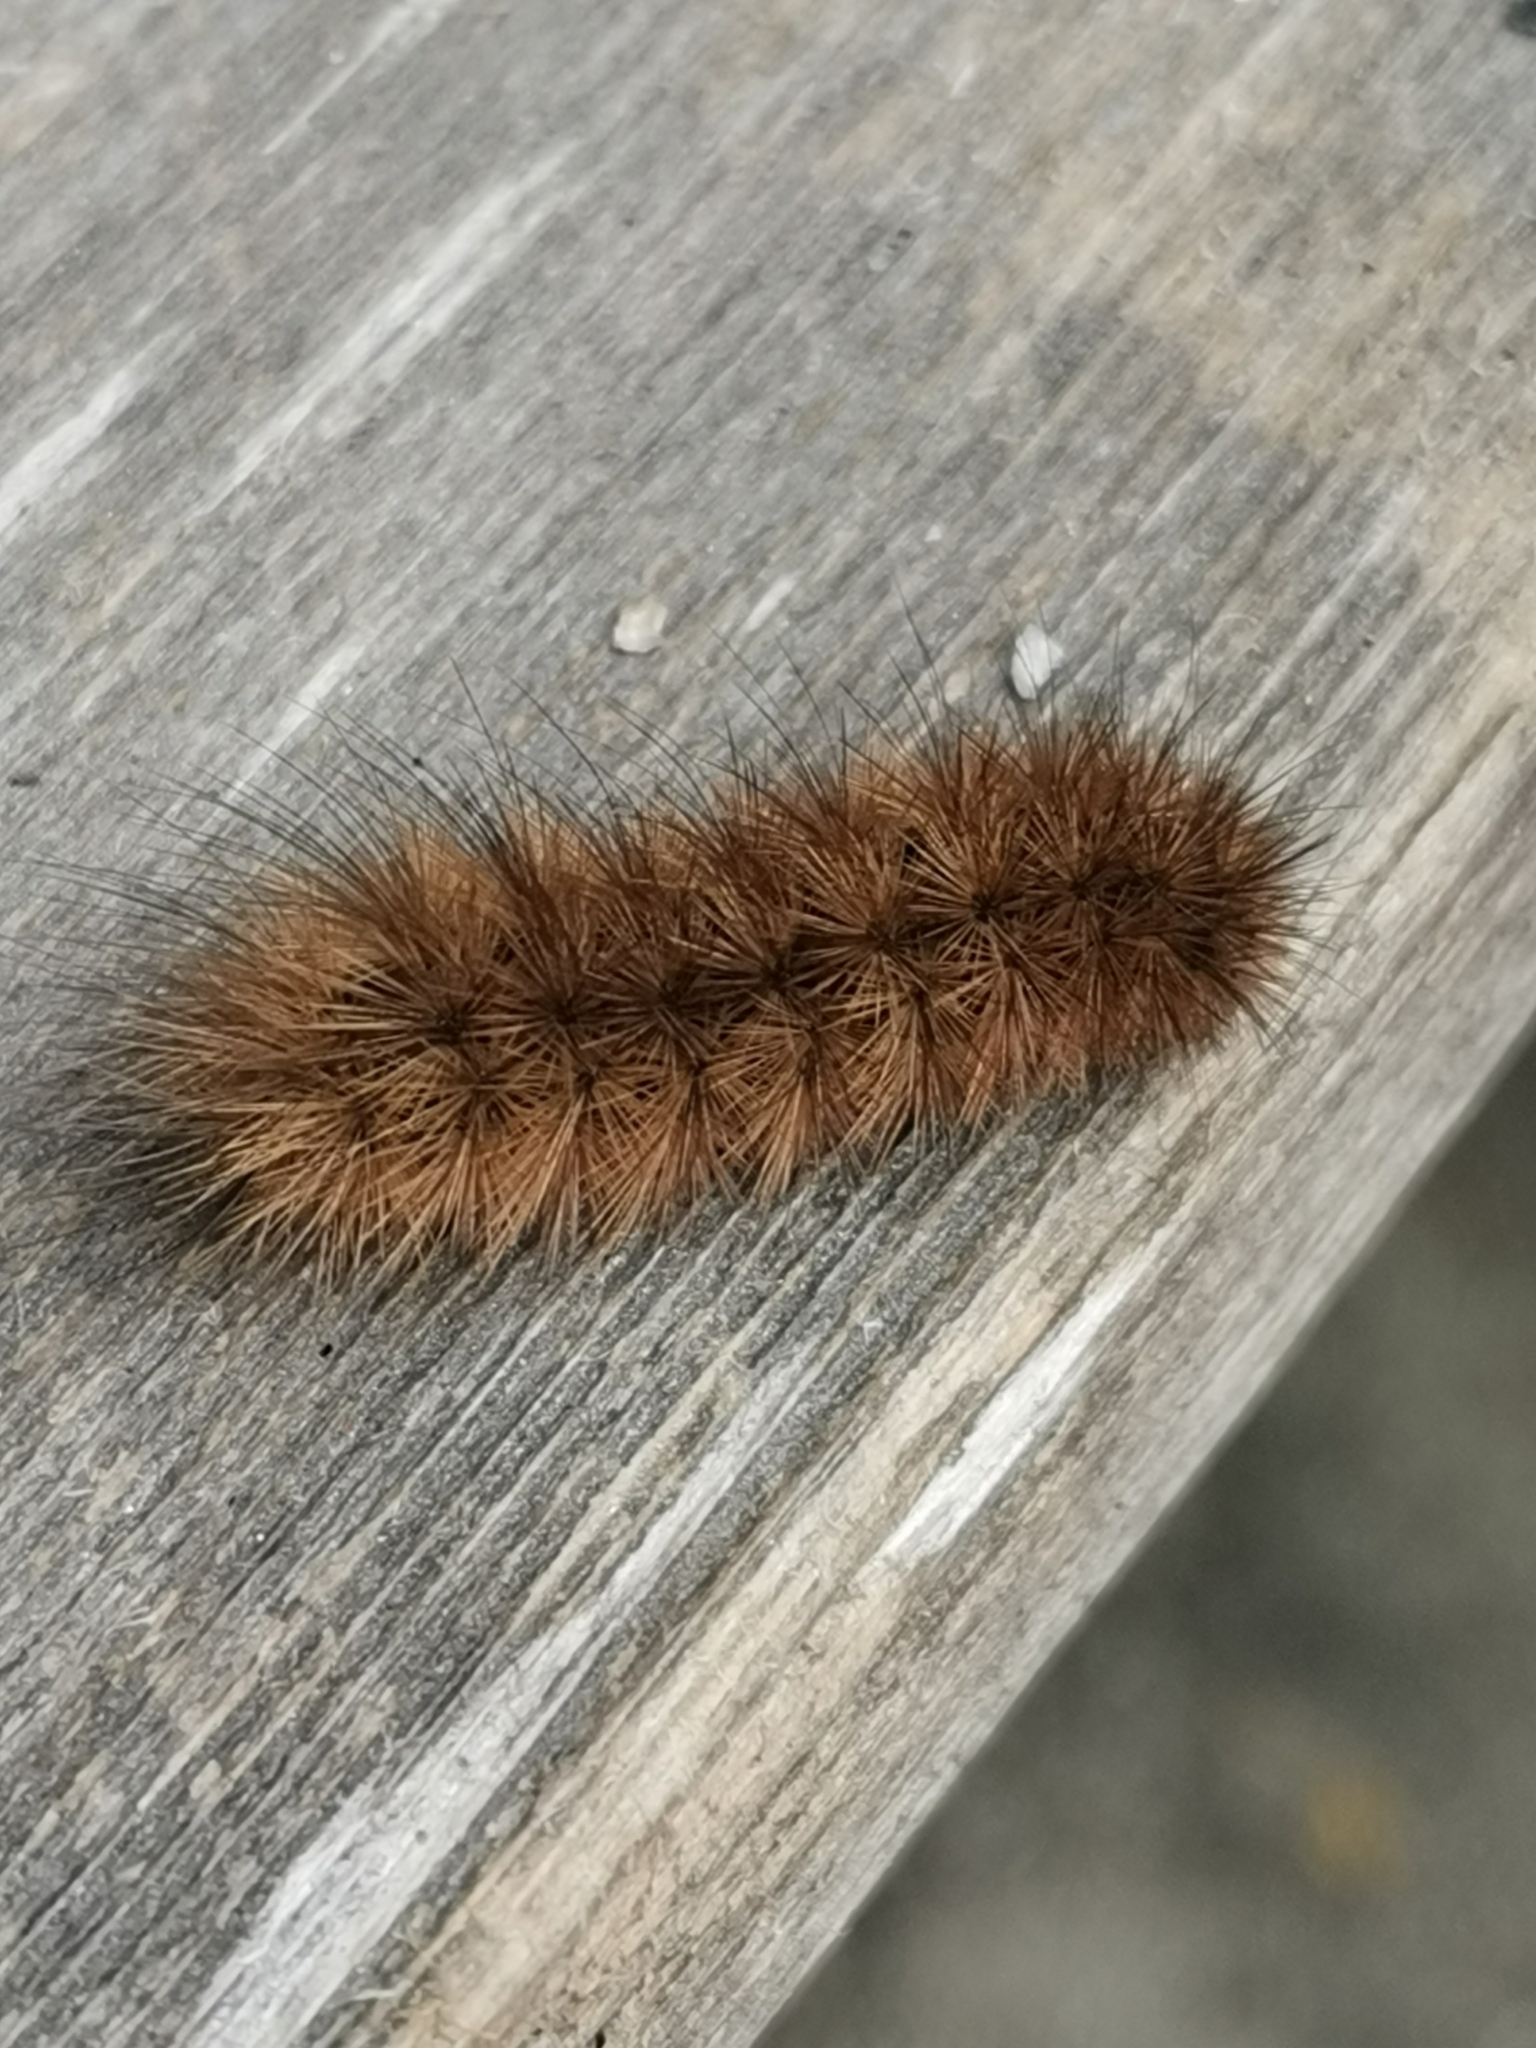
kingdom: Animalia
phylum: Arthropoda
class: Insecta
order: Lepidoptera
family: Erebidae
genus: Phragmatobia
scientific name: Phragmatobia fuliginosa
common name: Ruby tiger
